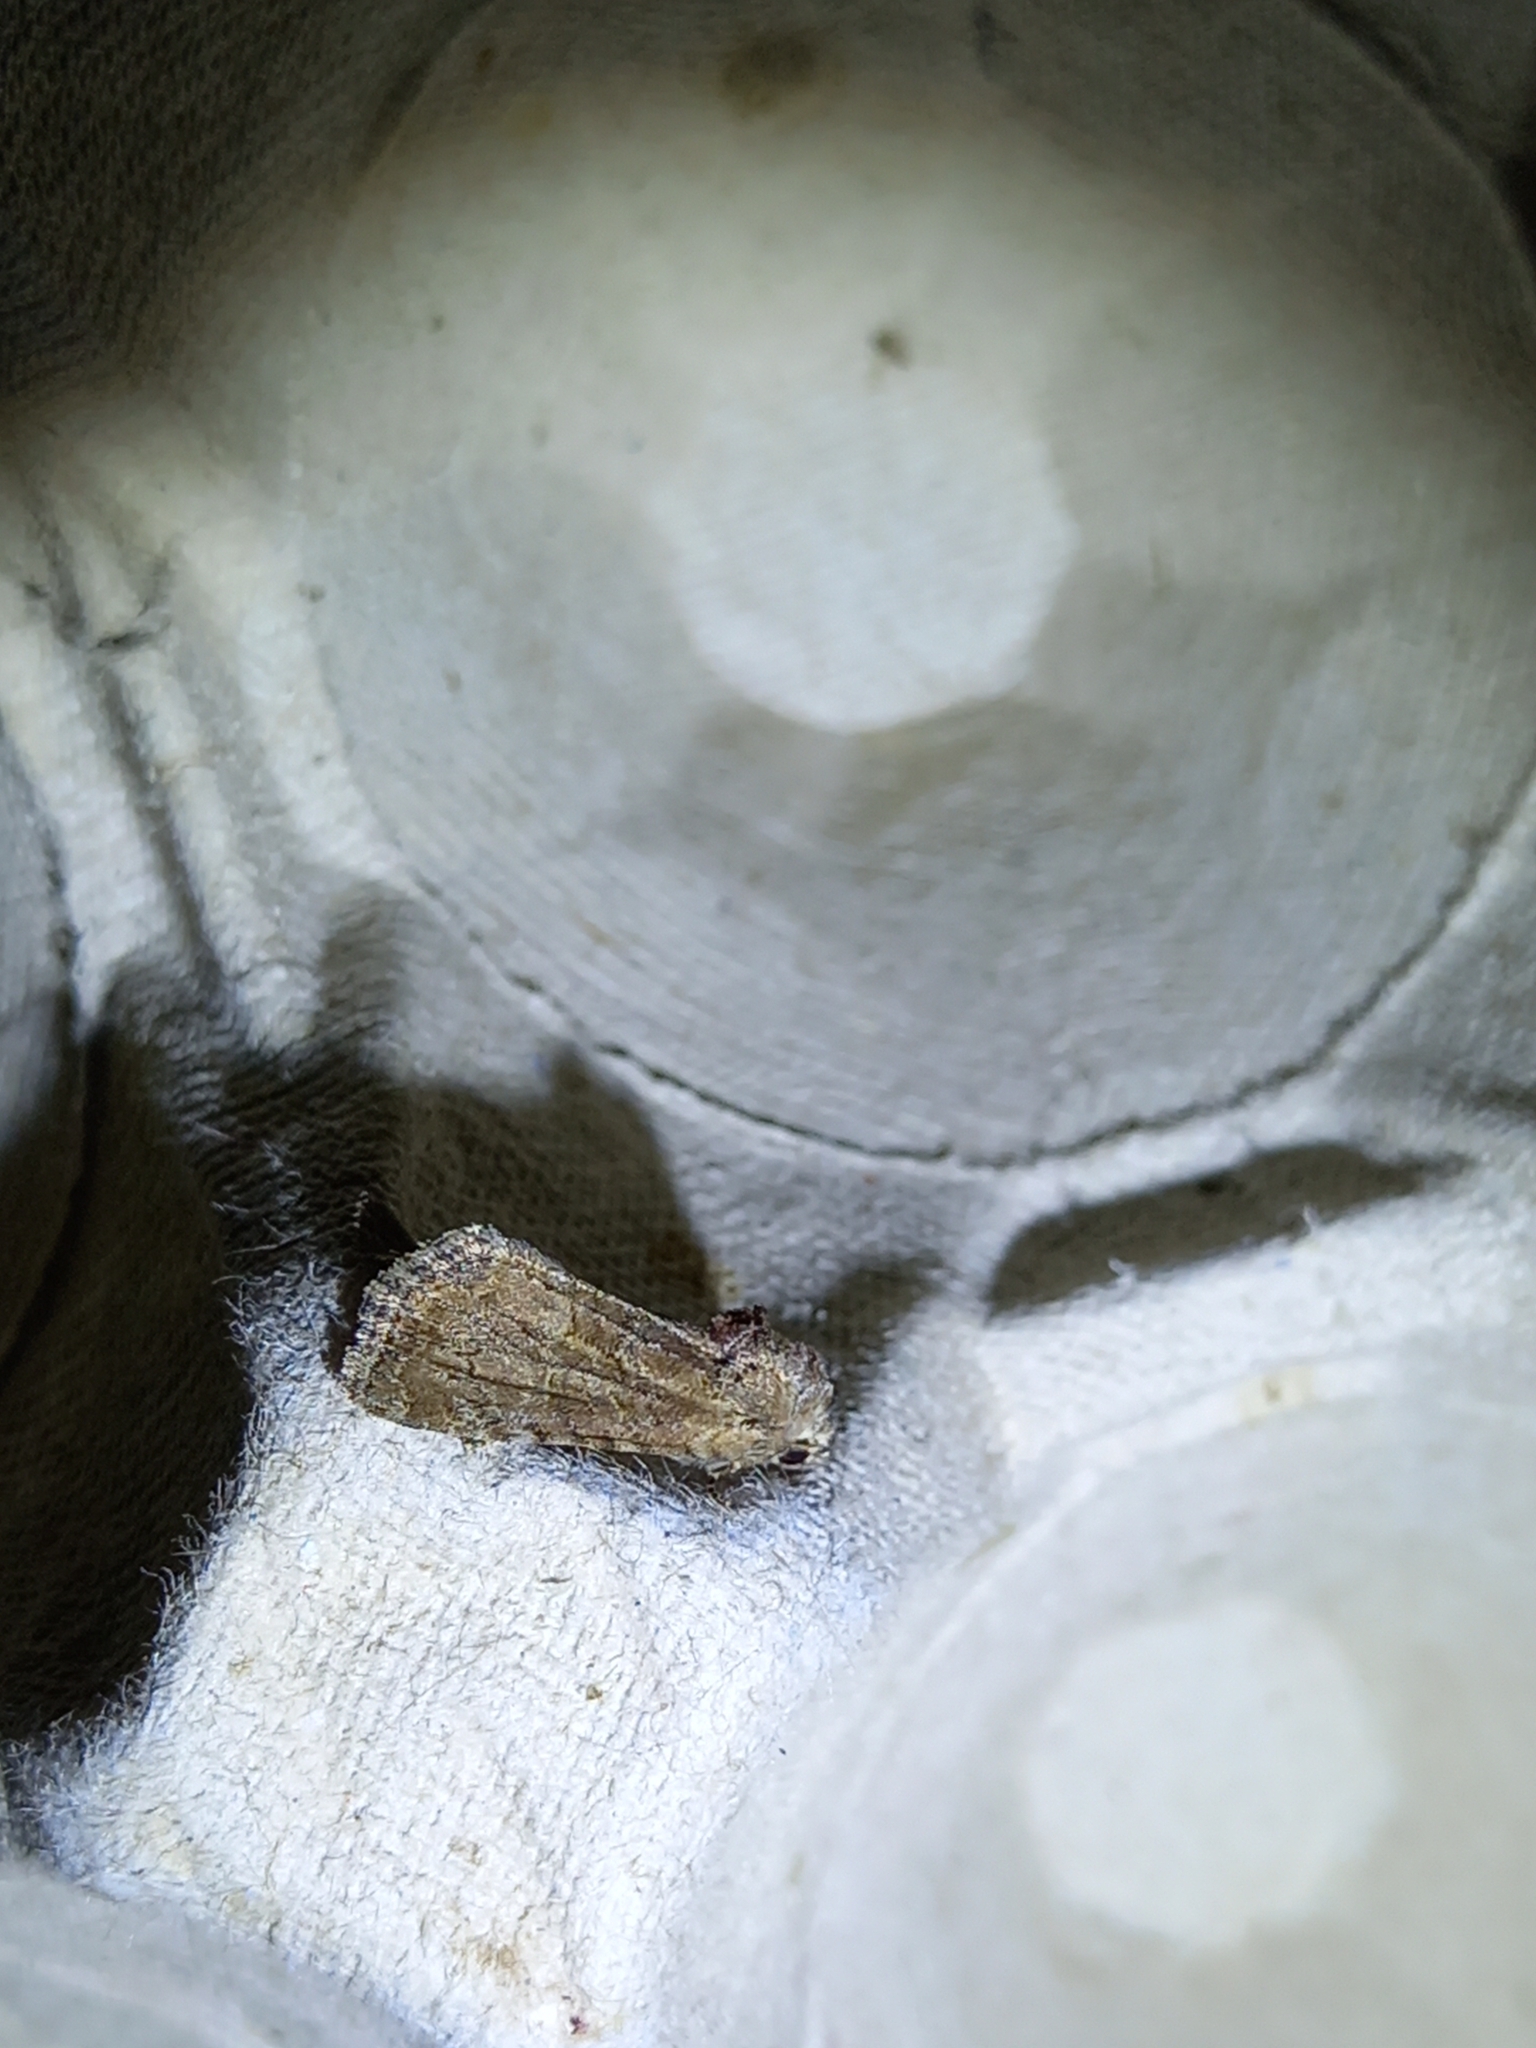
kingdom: Animalia
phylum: Arthropoda
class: Insecta
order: Lepidoptera
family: Noctuidae
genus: Mesoligia
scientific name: Mesoligia furuncula
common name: Cloaked minor
